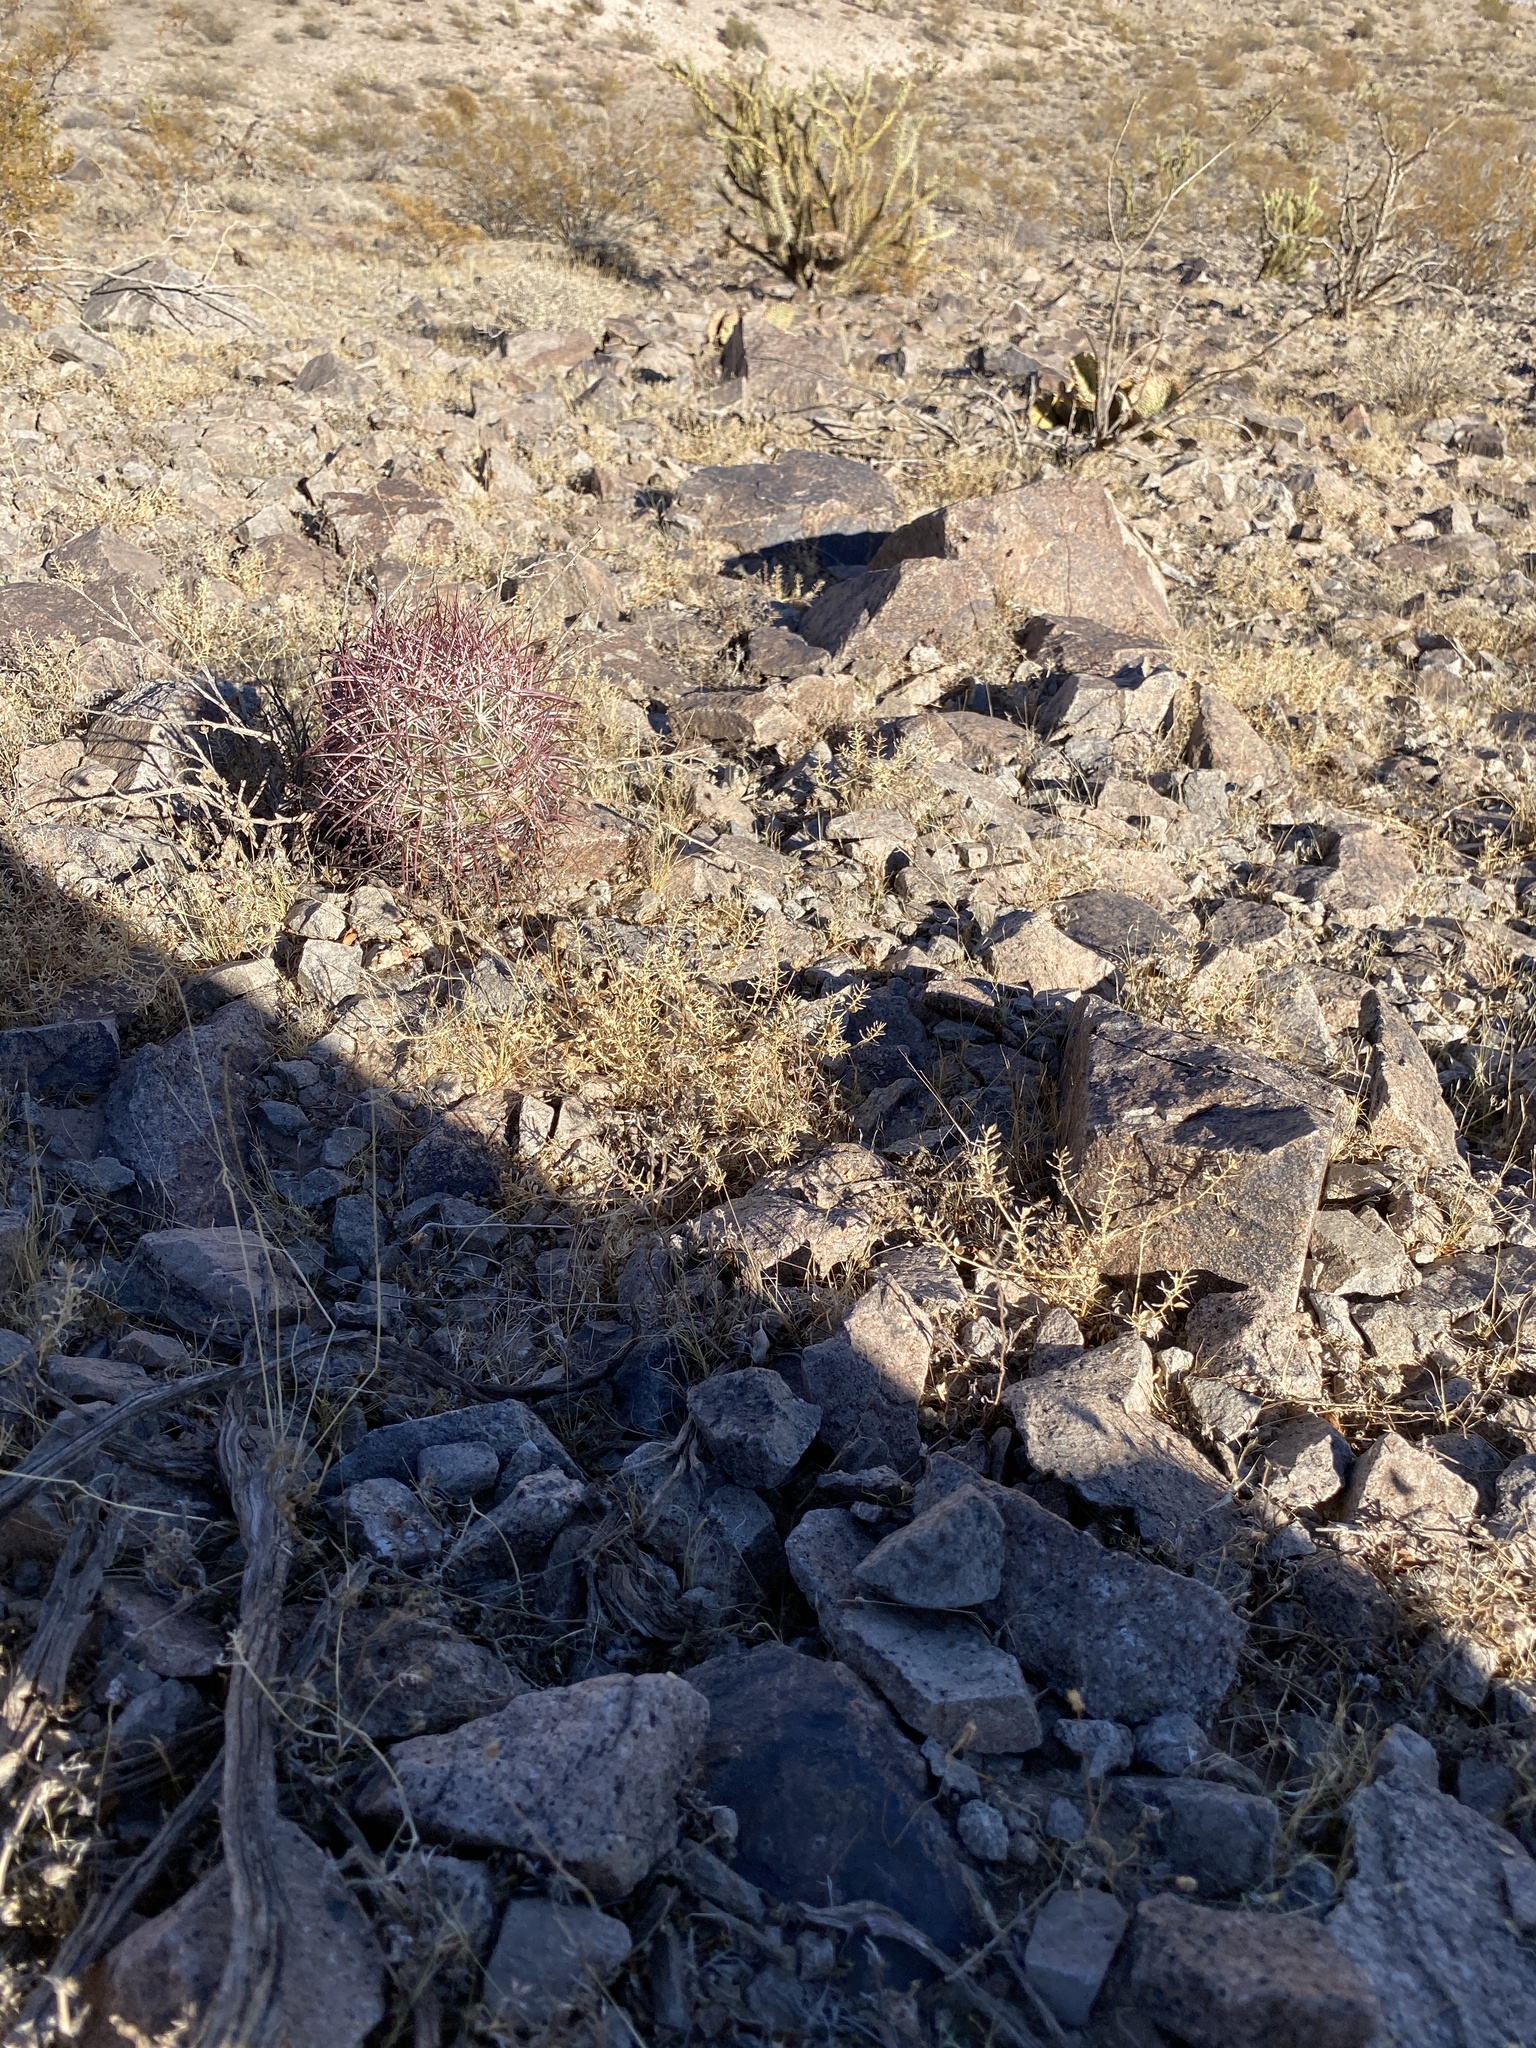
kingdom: Plantae
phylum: Tracheophyta
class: Magnoliopsida
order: Caryophyllales
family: Cactaceae
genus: Sclerocactus
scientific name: Sclerocactus johnsonii
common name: Eight-spine fishhook cactus
